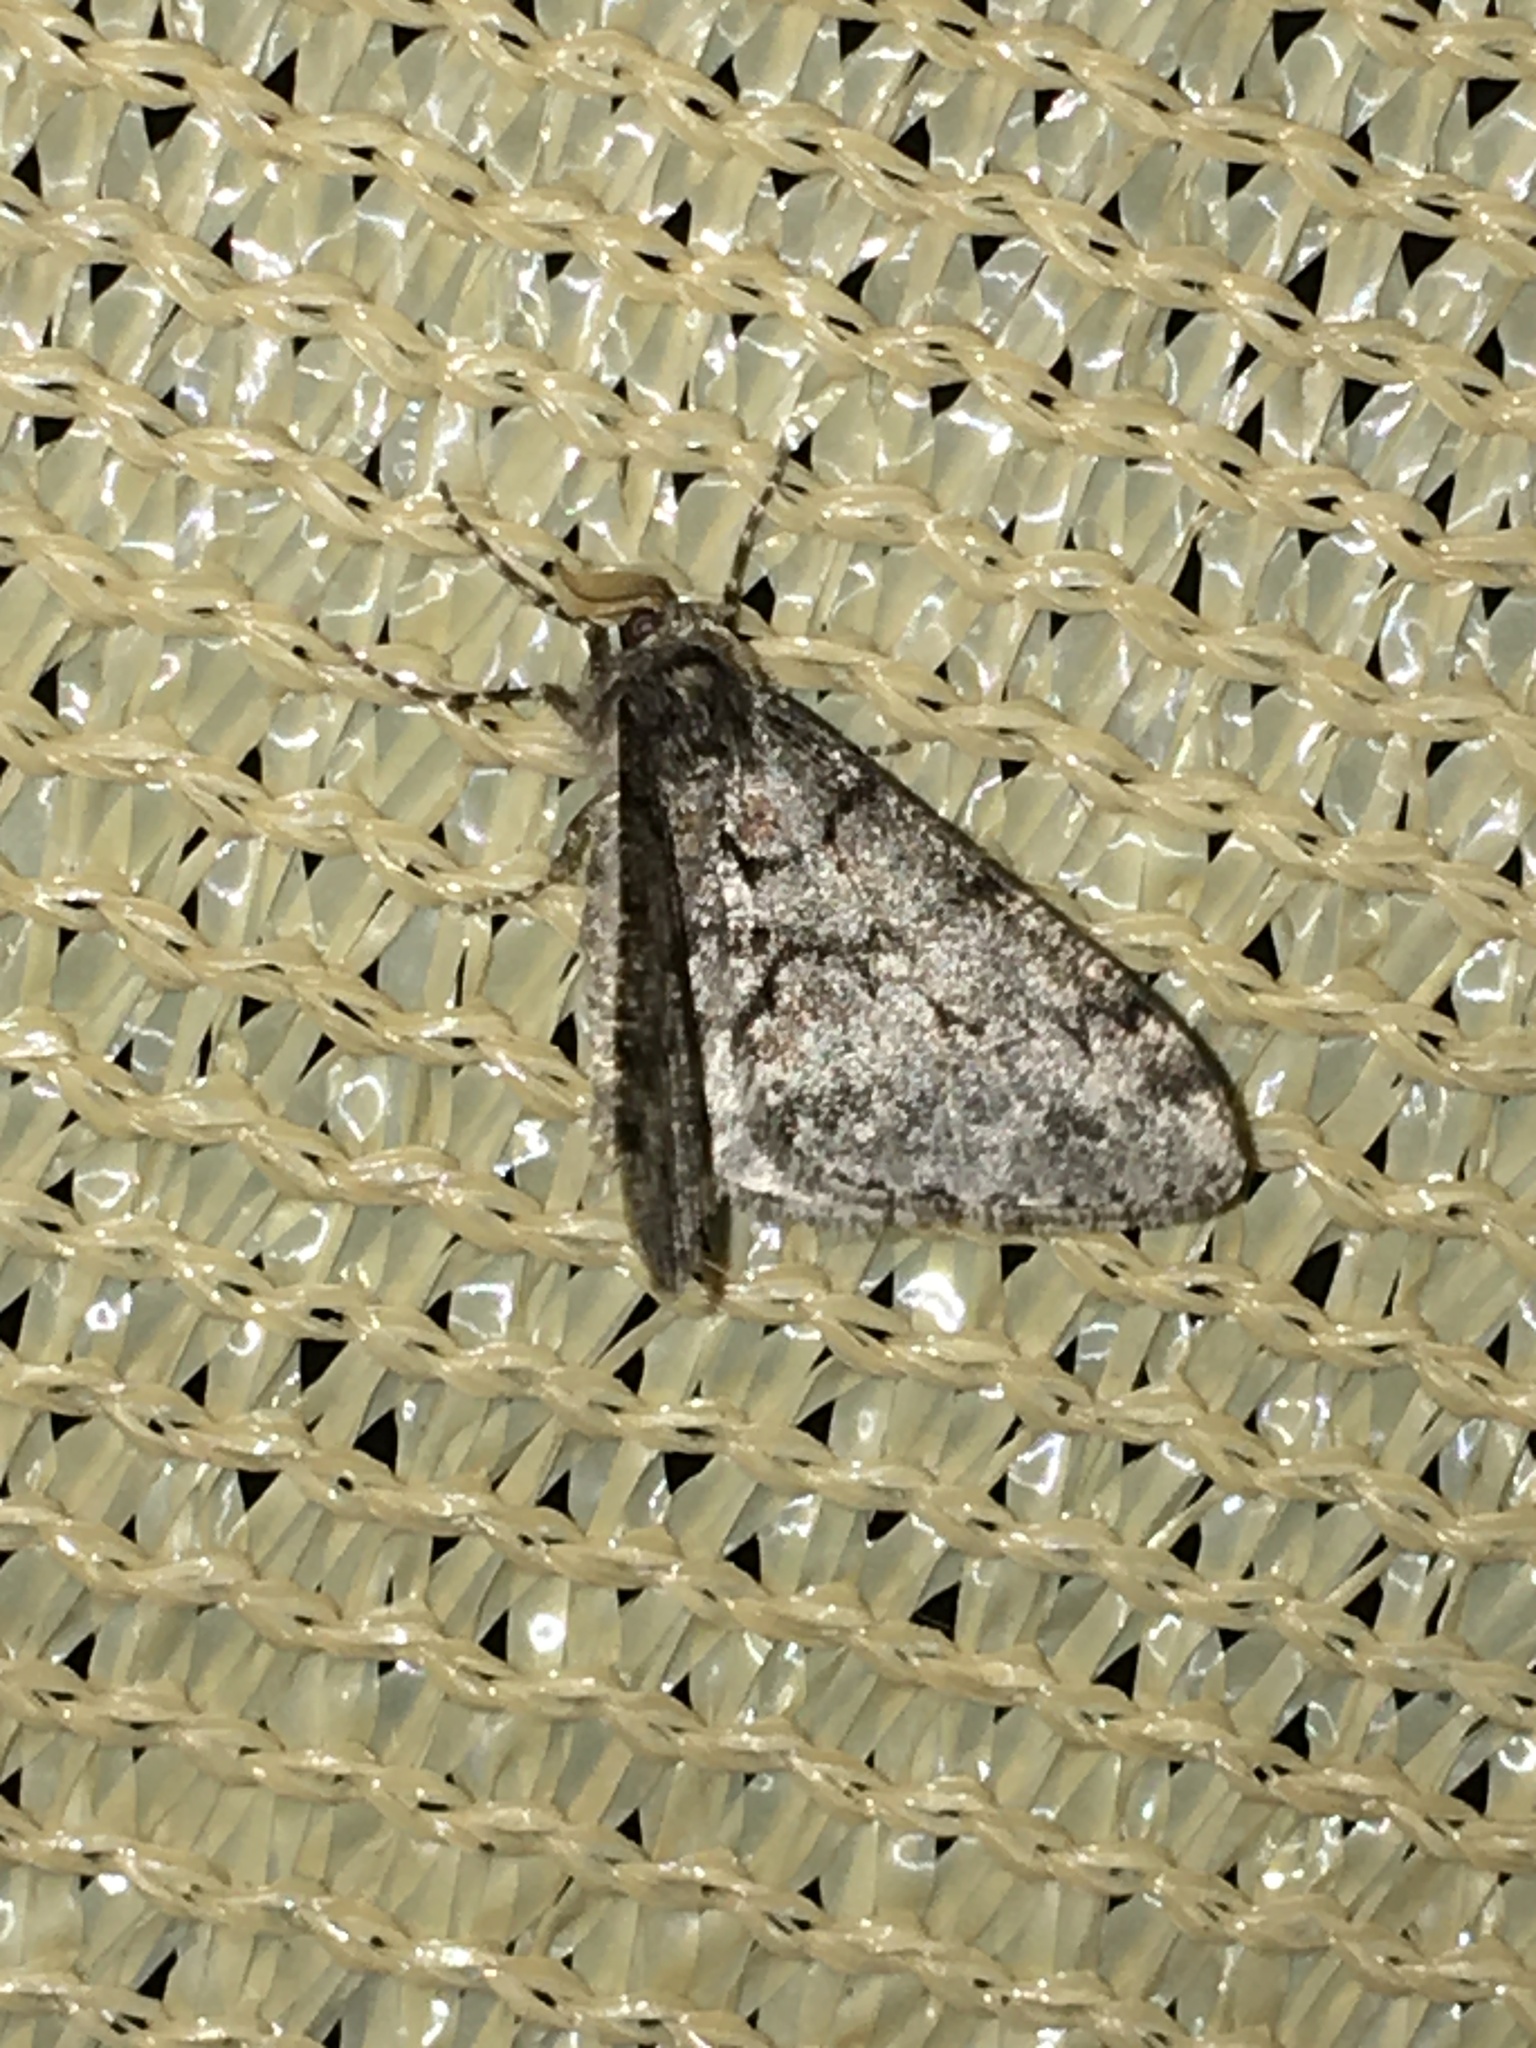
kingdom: Animalia
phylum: Arthropoda
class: Insecta
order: Lepidoptera
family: Geometridae
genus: Phigalia
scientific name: Phigalia denticulata
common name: Toothed phigalia
